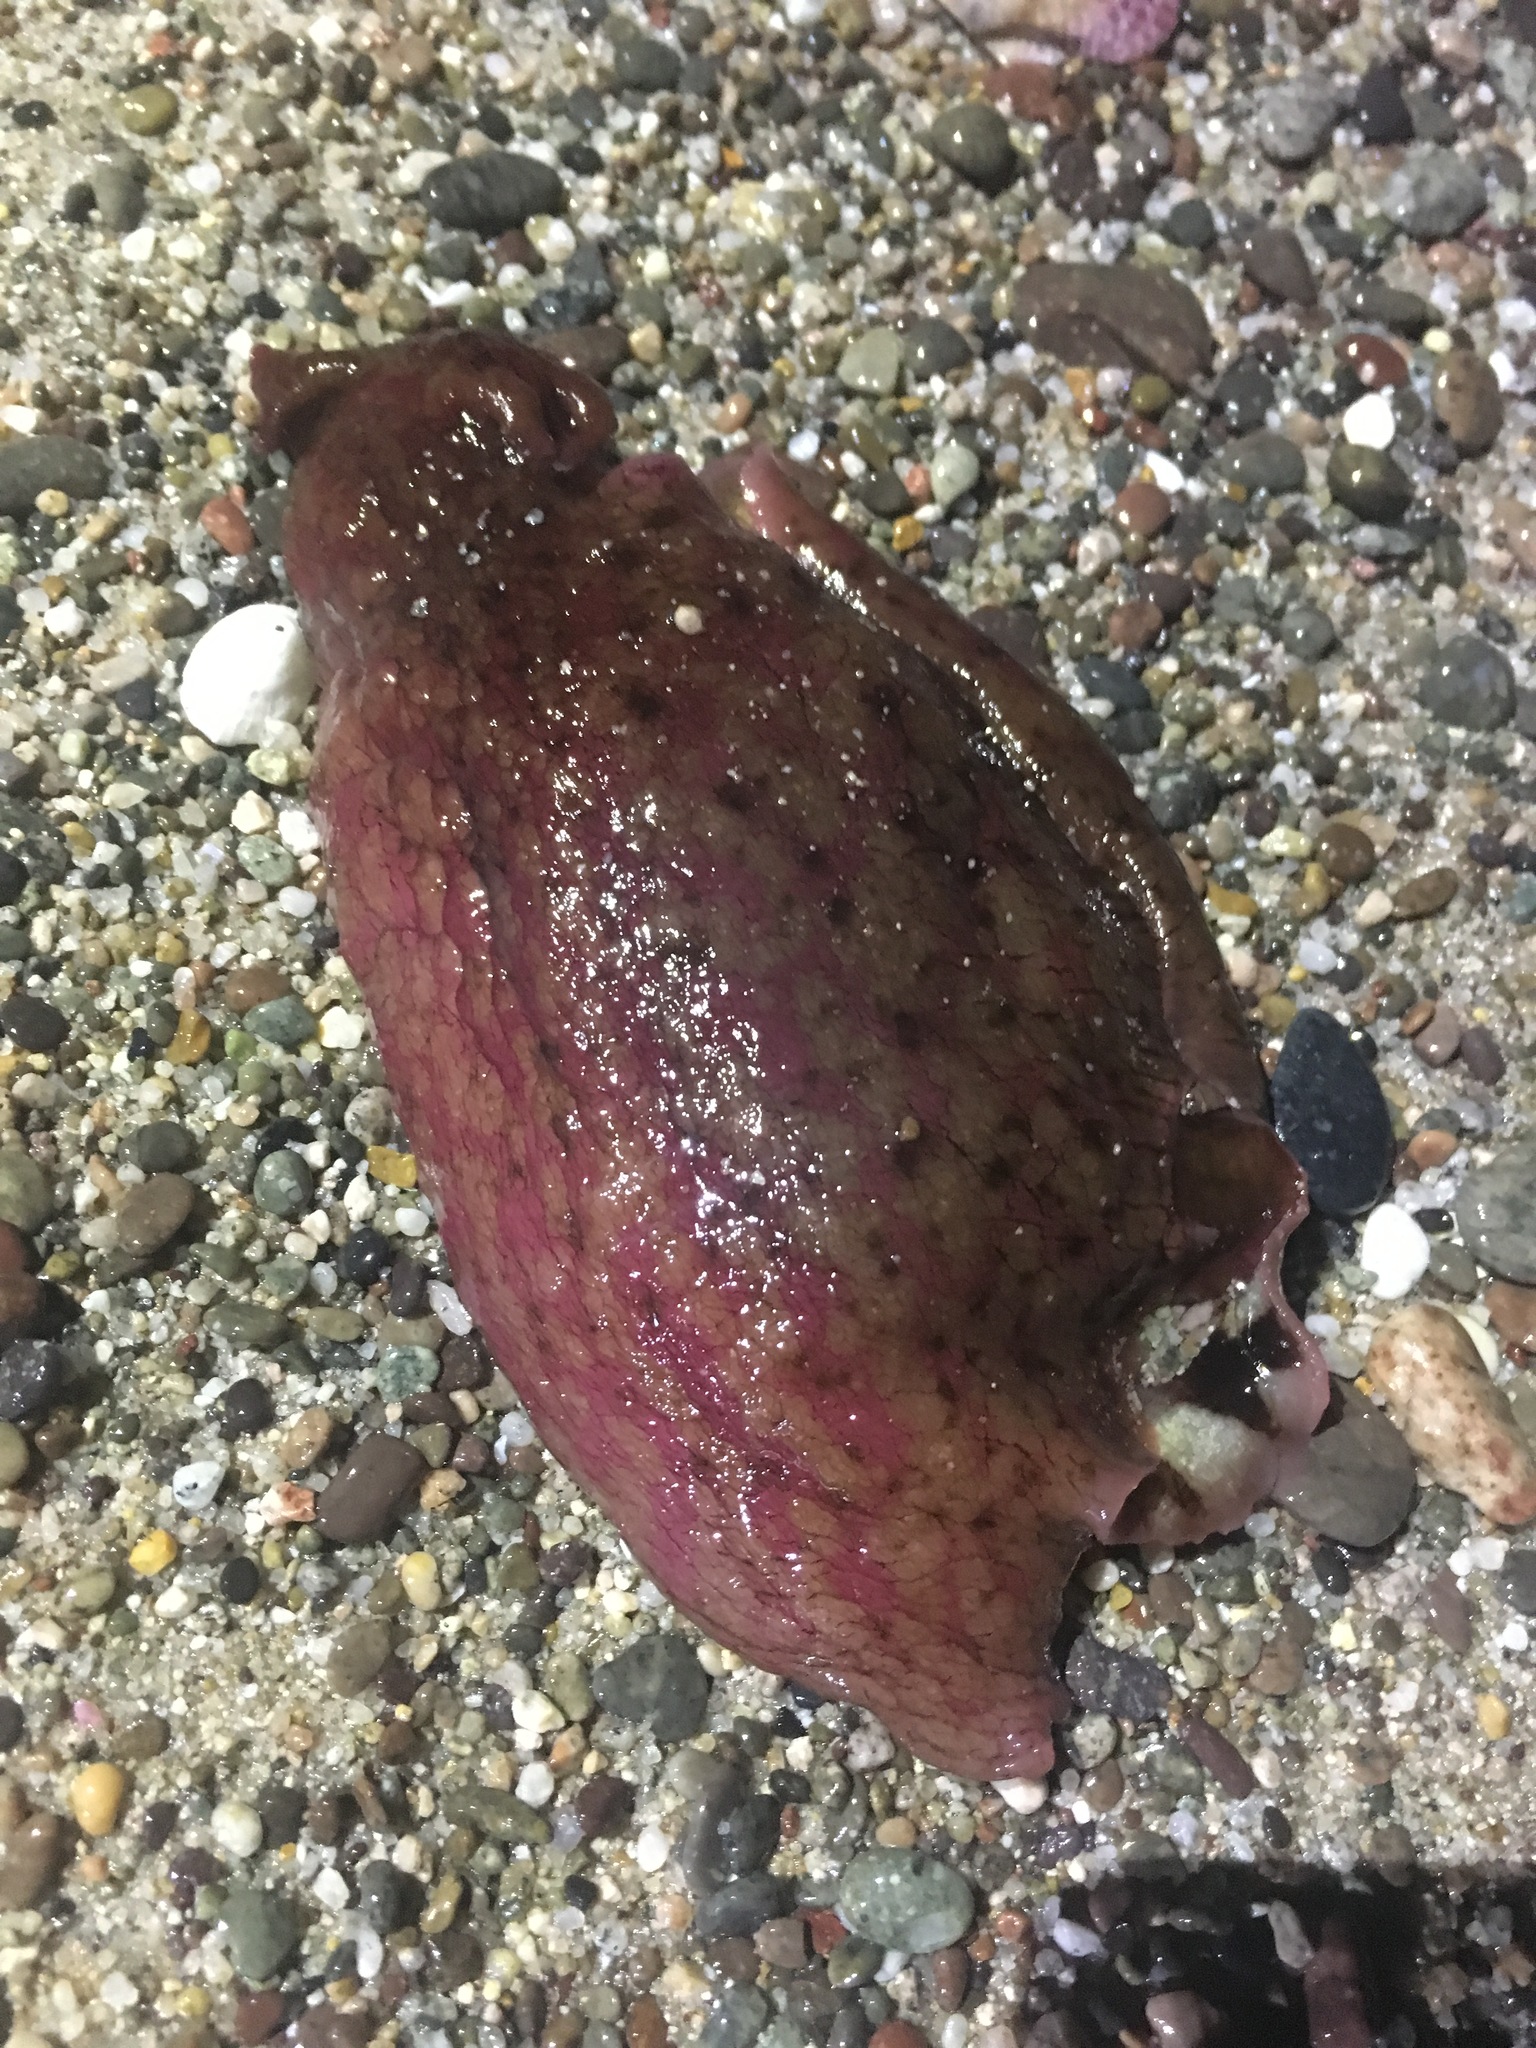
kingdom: Animalia
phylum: Mollusca
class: Gastropoda
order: Aplysiida
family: Aplysiidae
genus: Aplysia
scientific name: Aplysia californica
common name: California seahare
